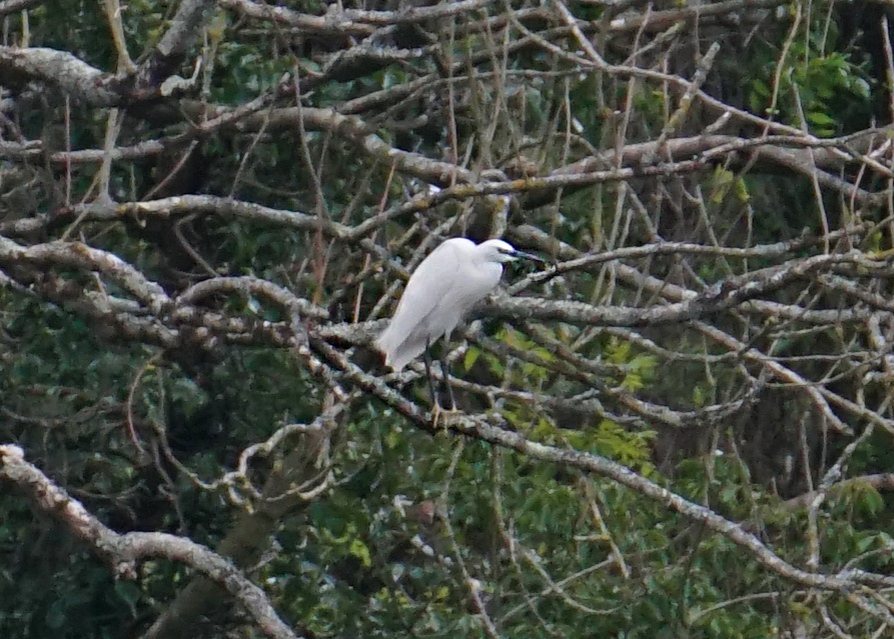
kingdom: Animalia
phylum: Chordata
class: Aves
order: Pelecaniformes
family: Ardeidae
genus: Egretta
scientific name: Egretta garzetta
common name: Little egret
